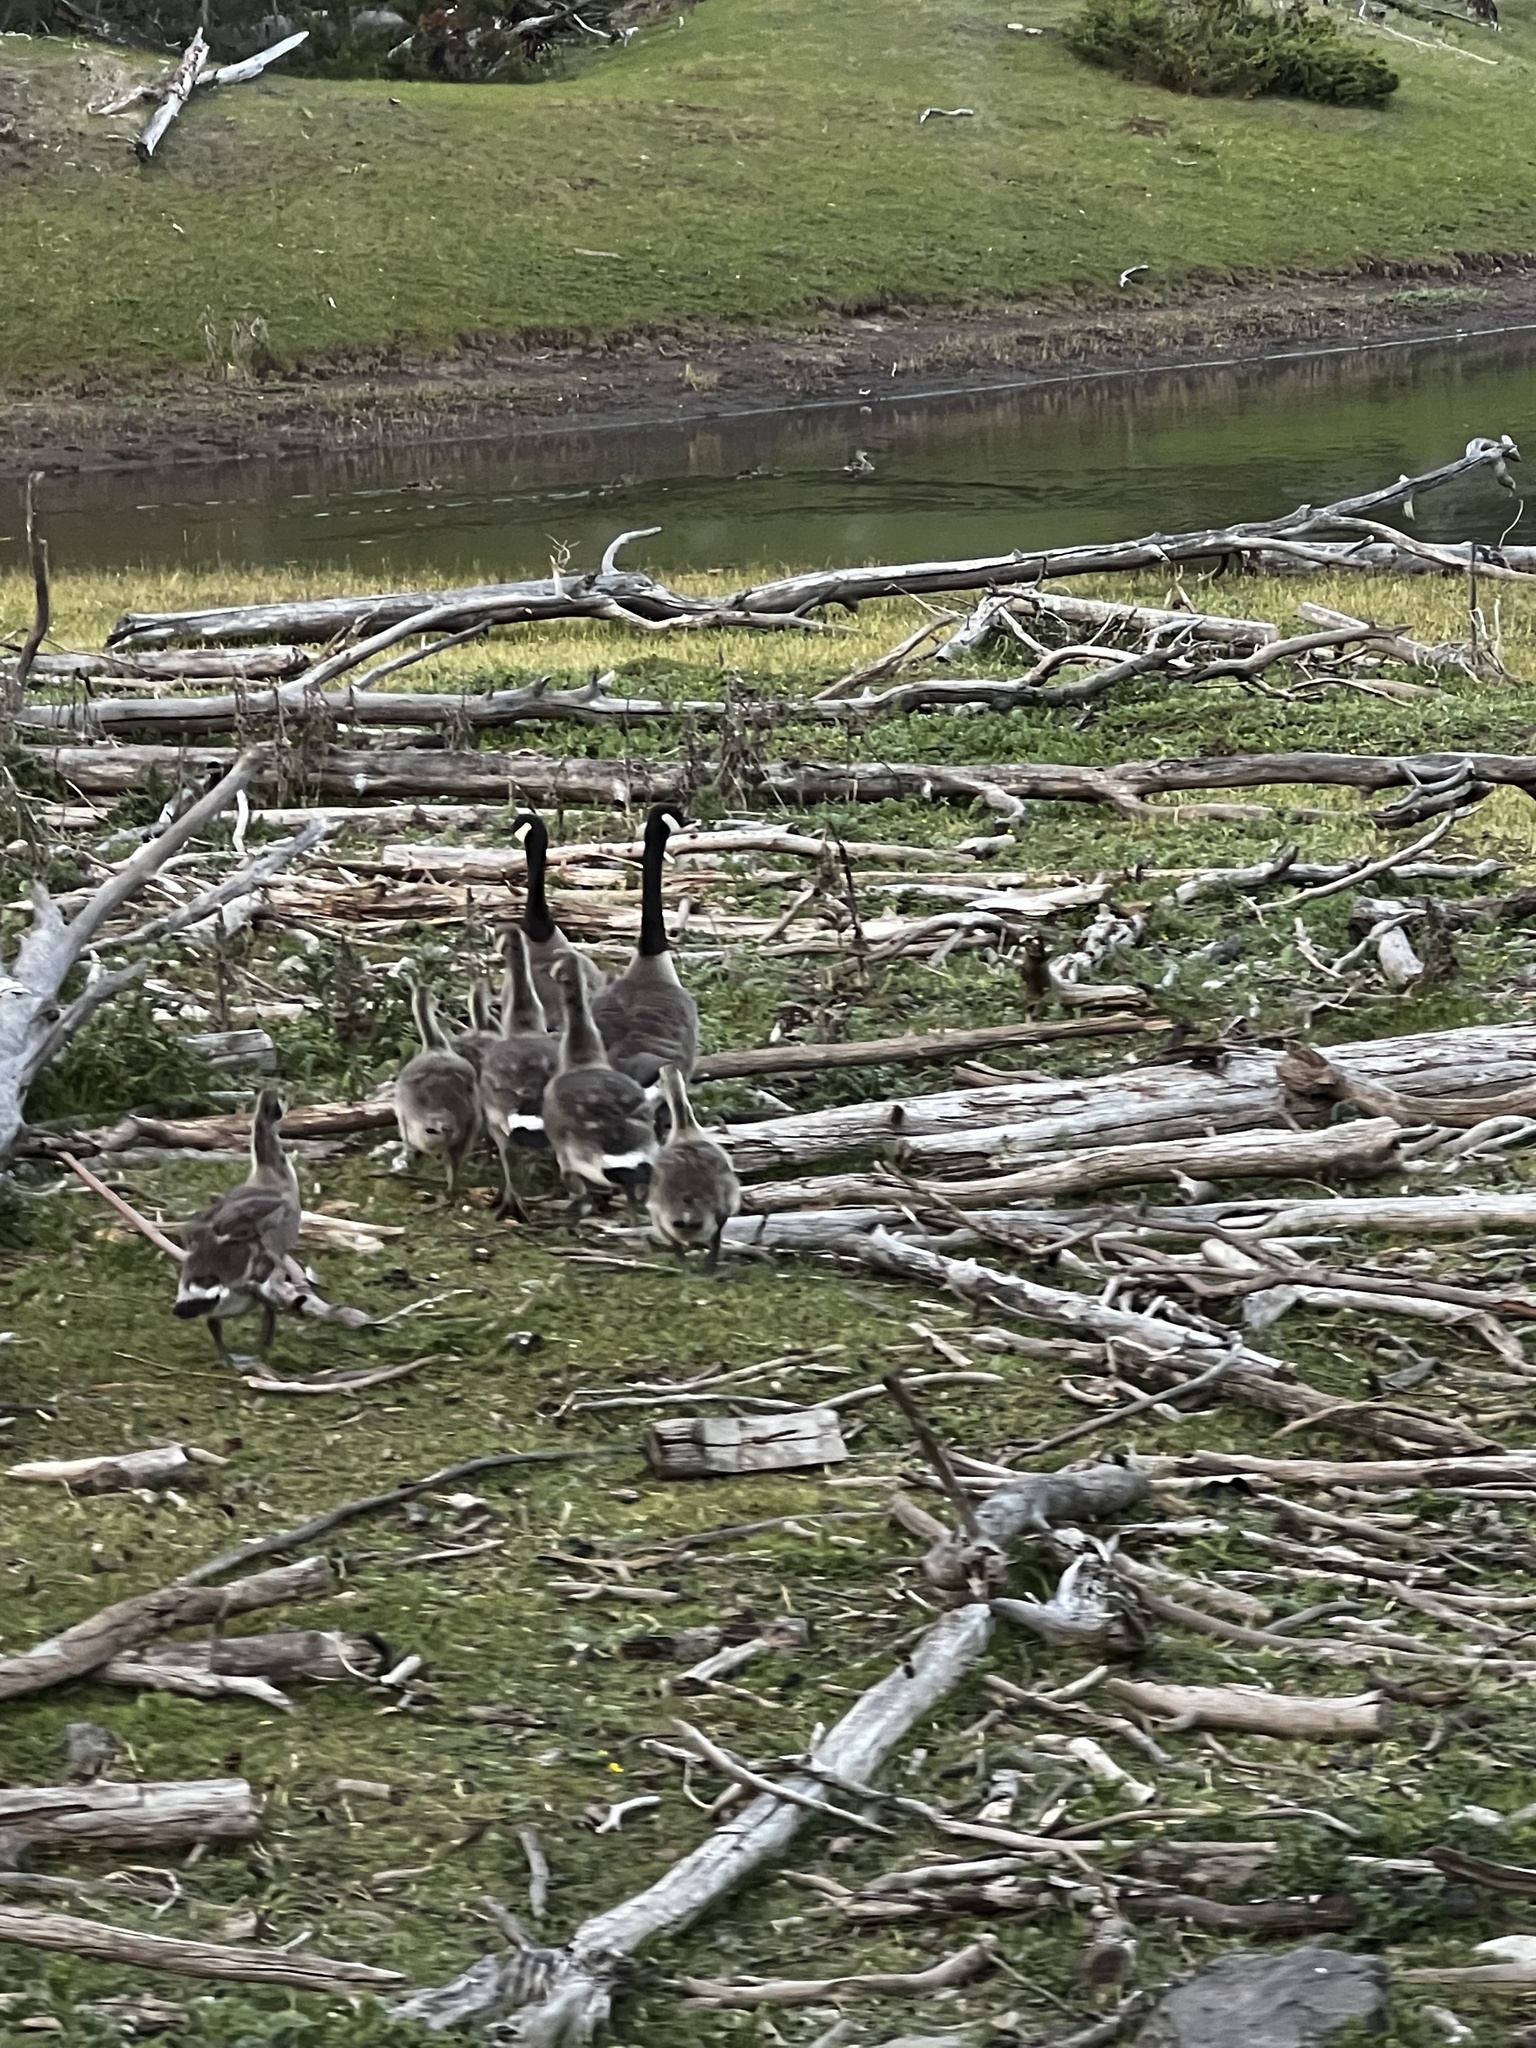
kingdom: Animalia
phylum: Chordata
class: Aves
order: Anseriformes
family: Anatidae
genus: Branta
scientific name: Branta canadensis
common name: Canada goose
